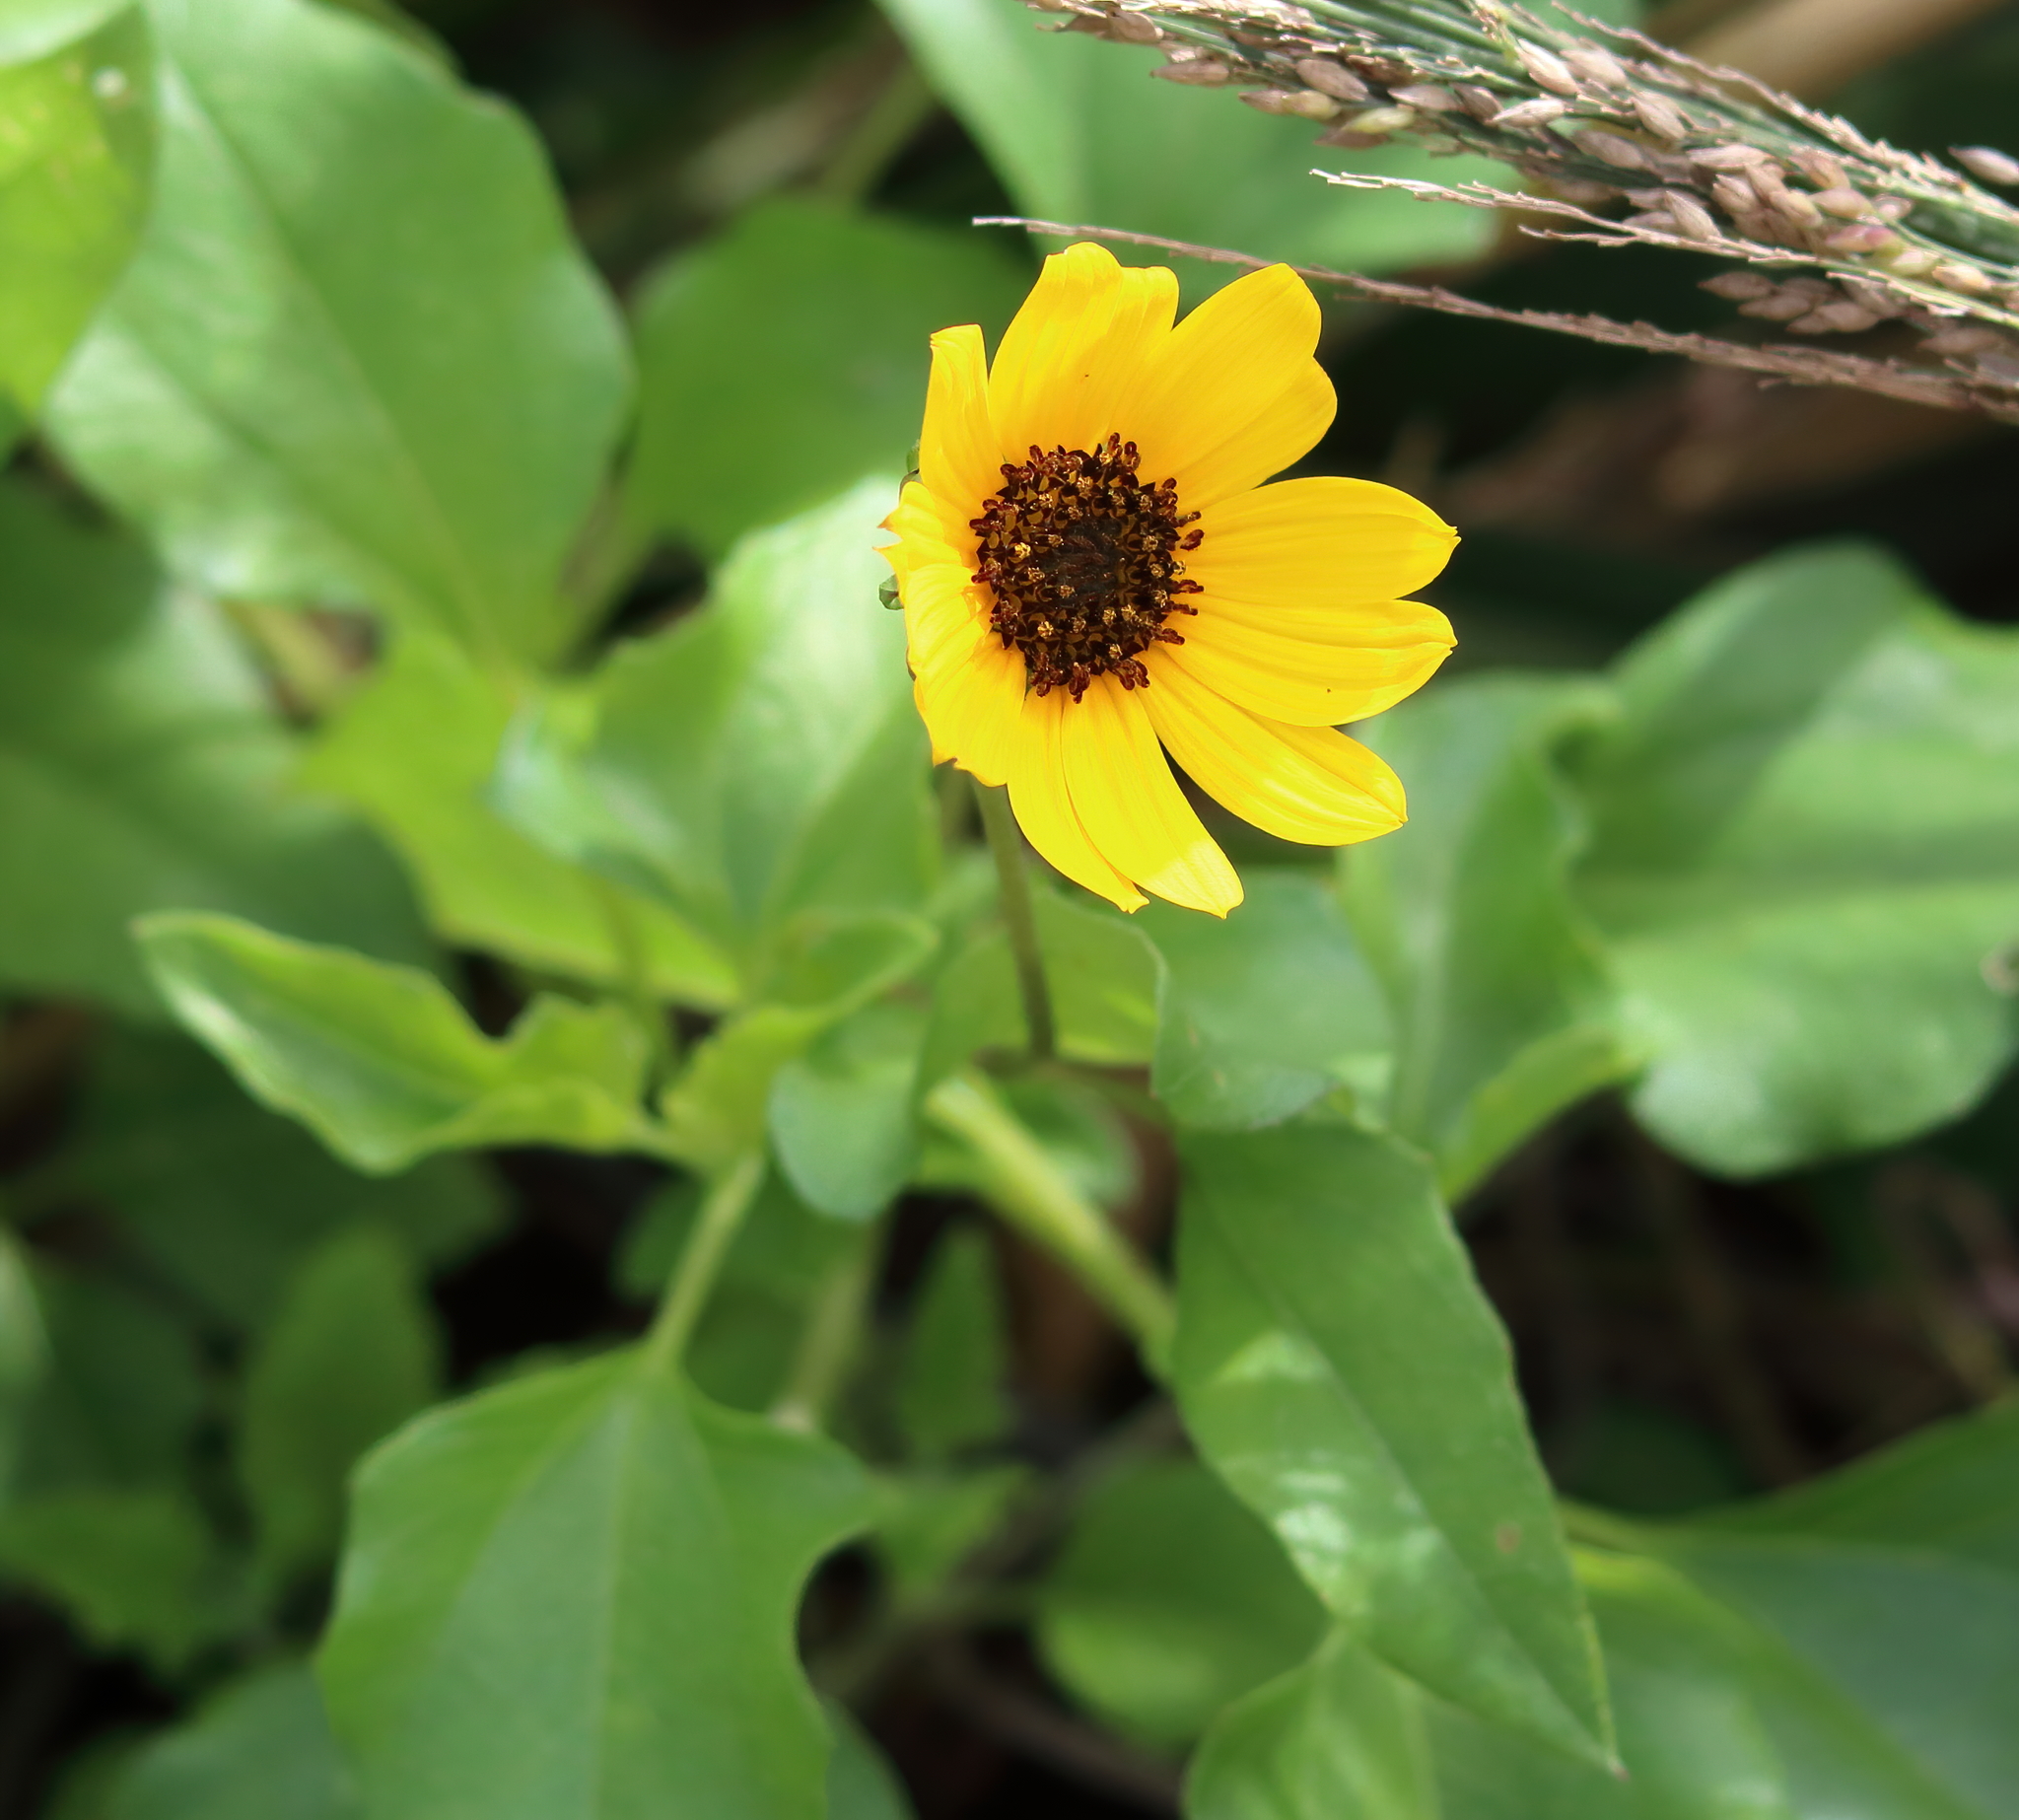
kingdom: Plantae
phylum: Tracheophyta
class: Magnoliopsida
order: Asterales
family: Asteraceae
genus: Helianthus
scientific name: Helianthus debilis
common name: Weak sunflower
